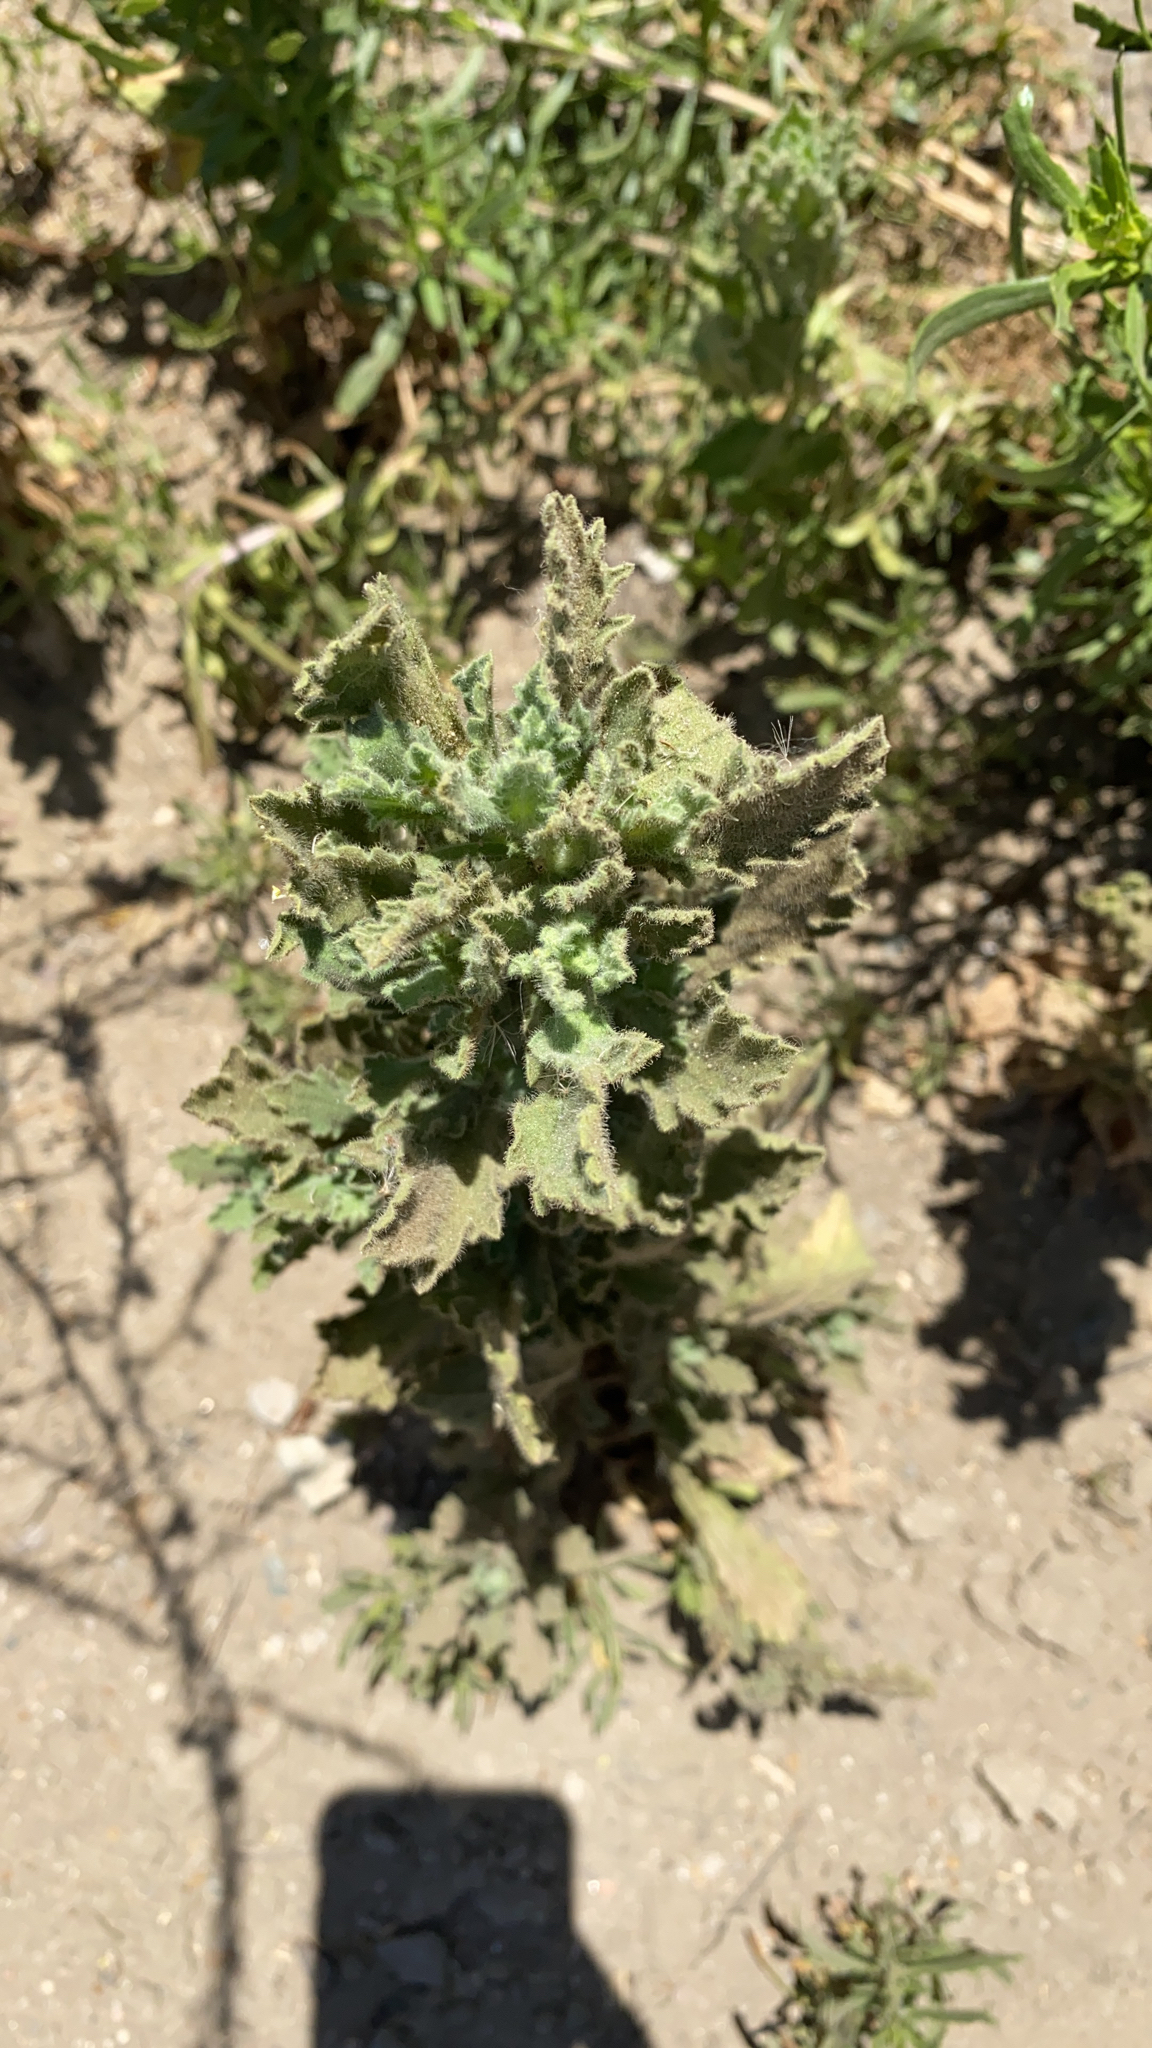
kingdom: Plantae
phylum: Tracheophyta
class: Magnoliopsida
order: Asterales
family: Asteraceae
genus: Laennecia
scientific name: Laennecia coulteri
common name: Coulter's woolwort
